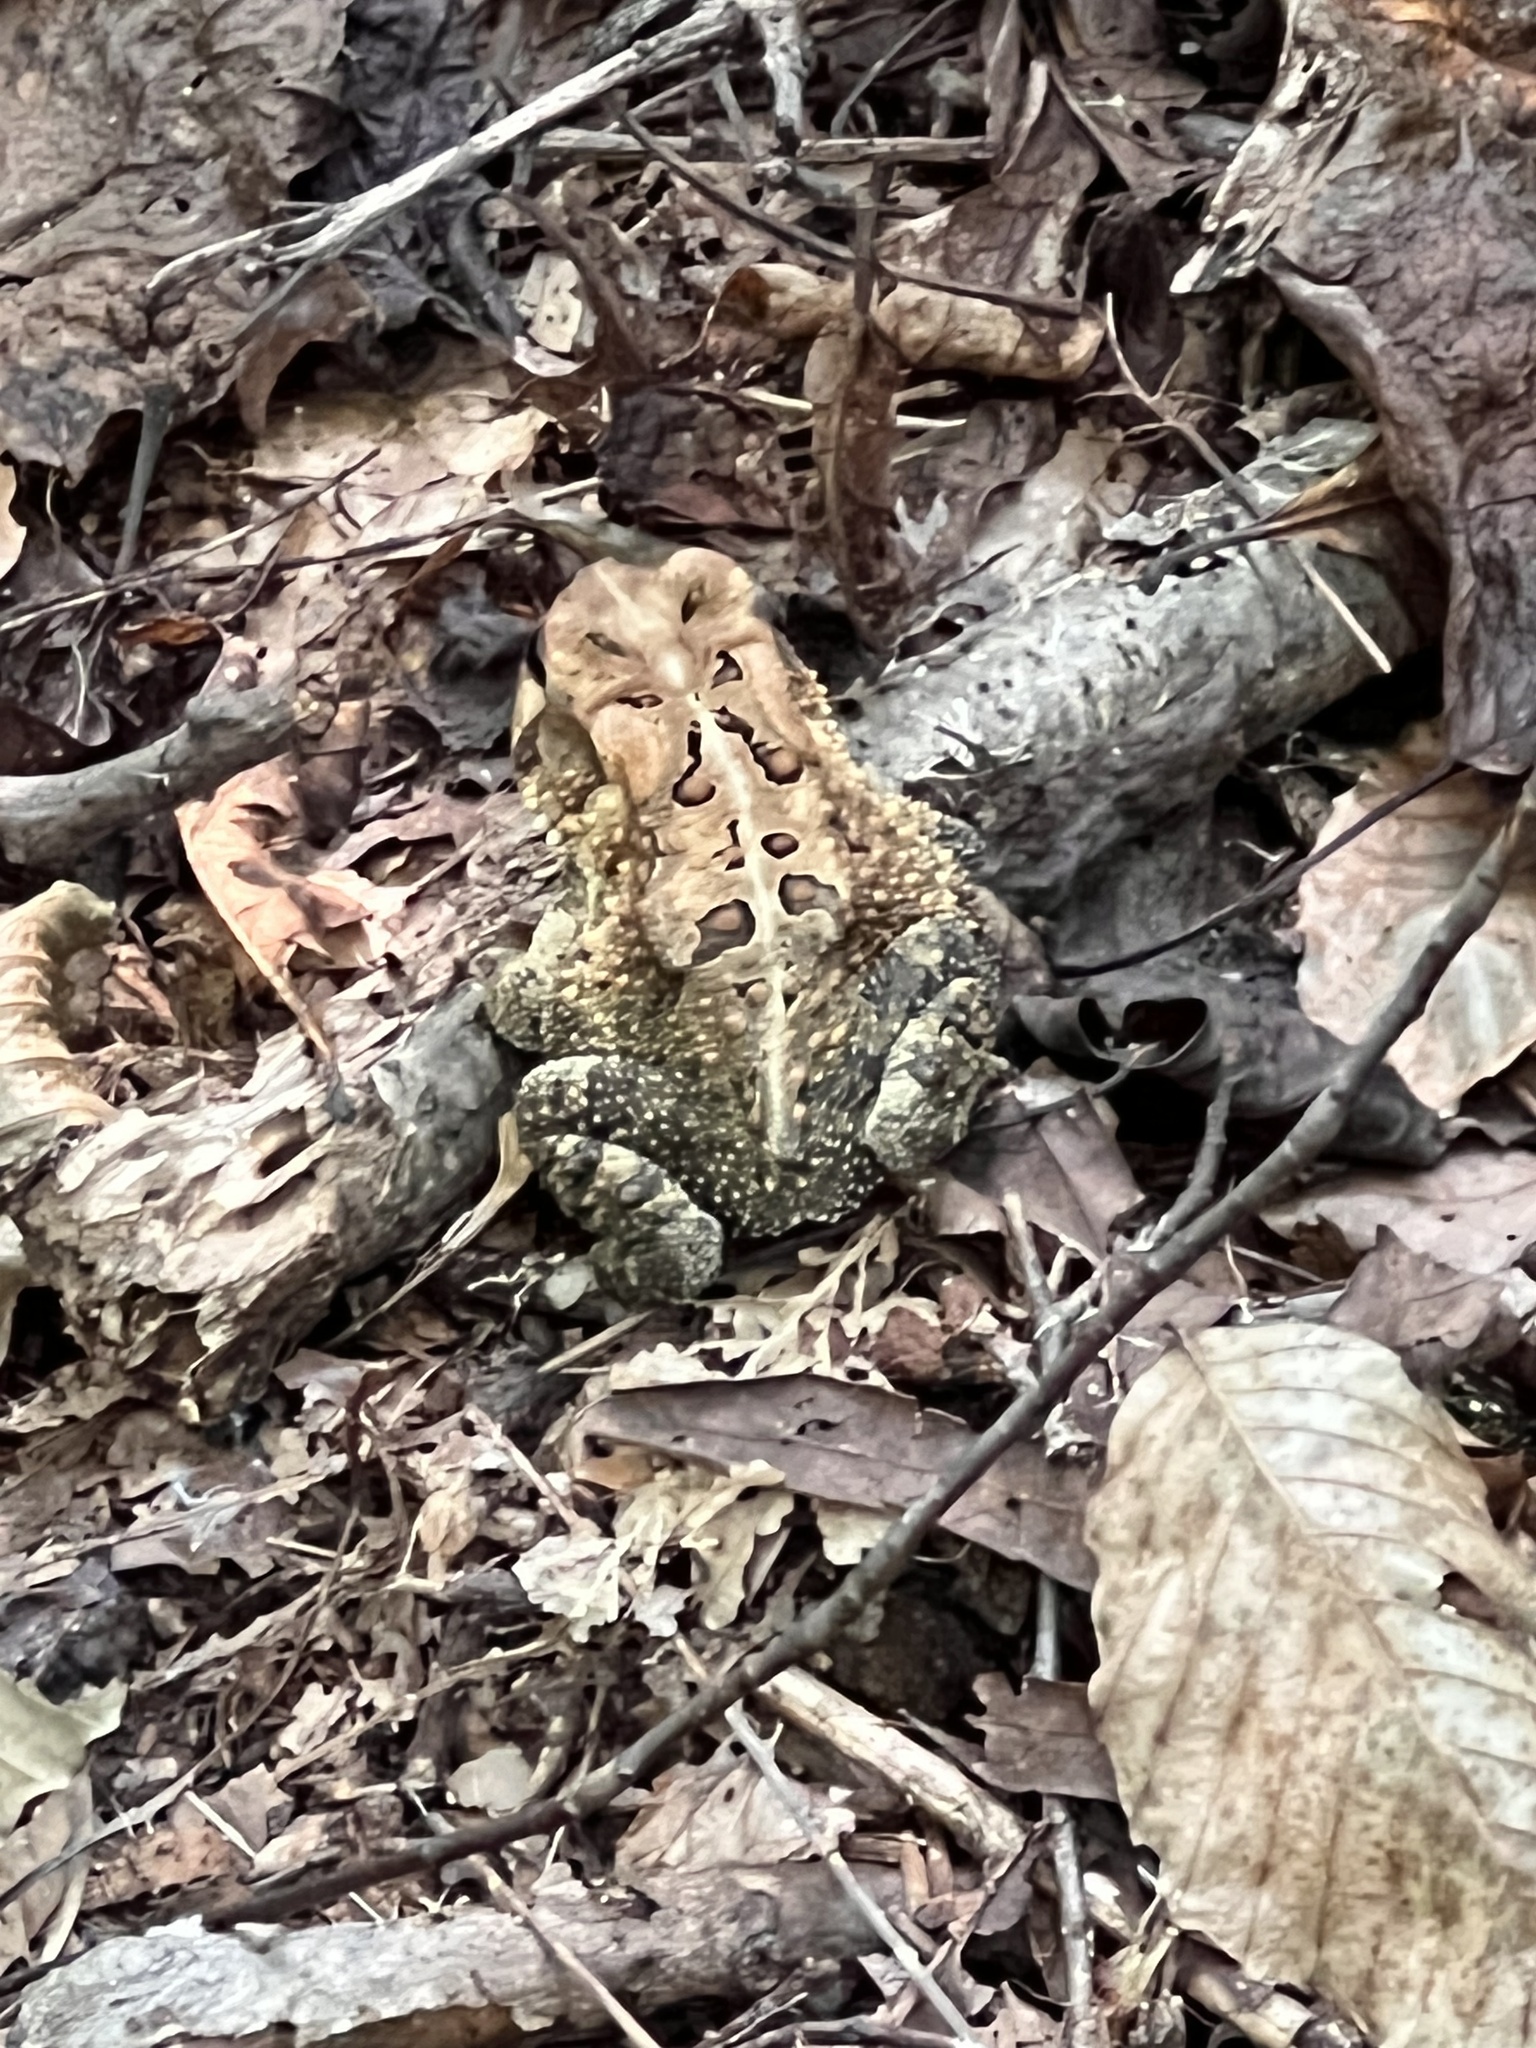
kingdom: Animalia
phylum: Chordata
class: Amphibia
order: Anura
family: Bufonidae
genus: Anaxyrus
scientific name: Anaxyrus americanus
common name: American toad
